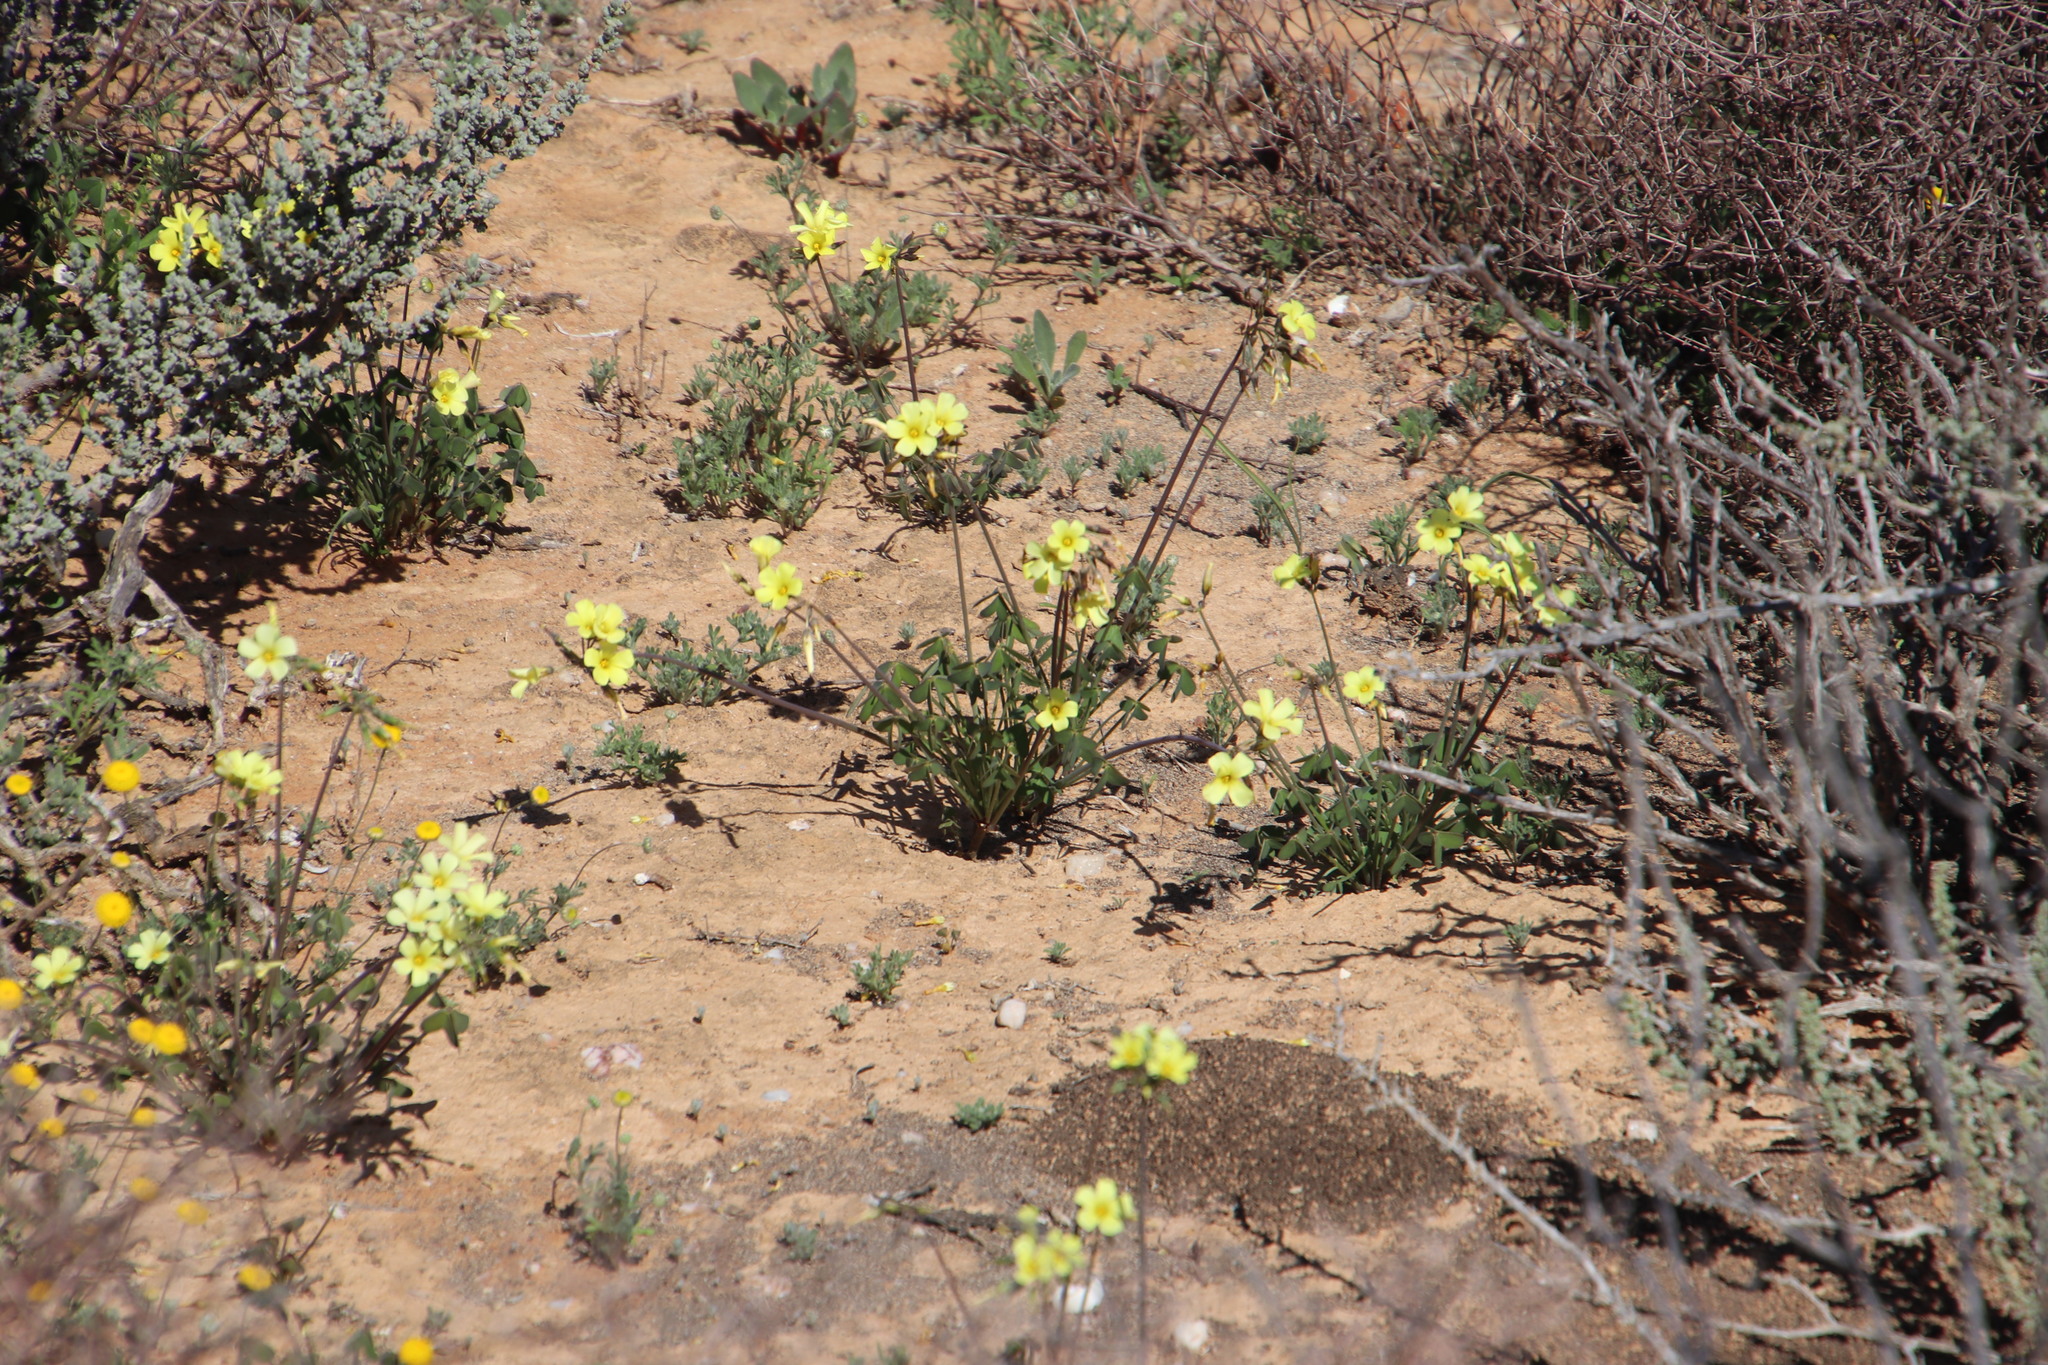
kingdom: Plantae
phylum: Tracheophyta
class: Magnoliopsida
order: Oxalidales
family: Oxalidaceae
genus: Oxalis
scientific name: Oxalis pes-caprae
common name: Bermuda-buttercup
